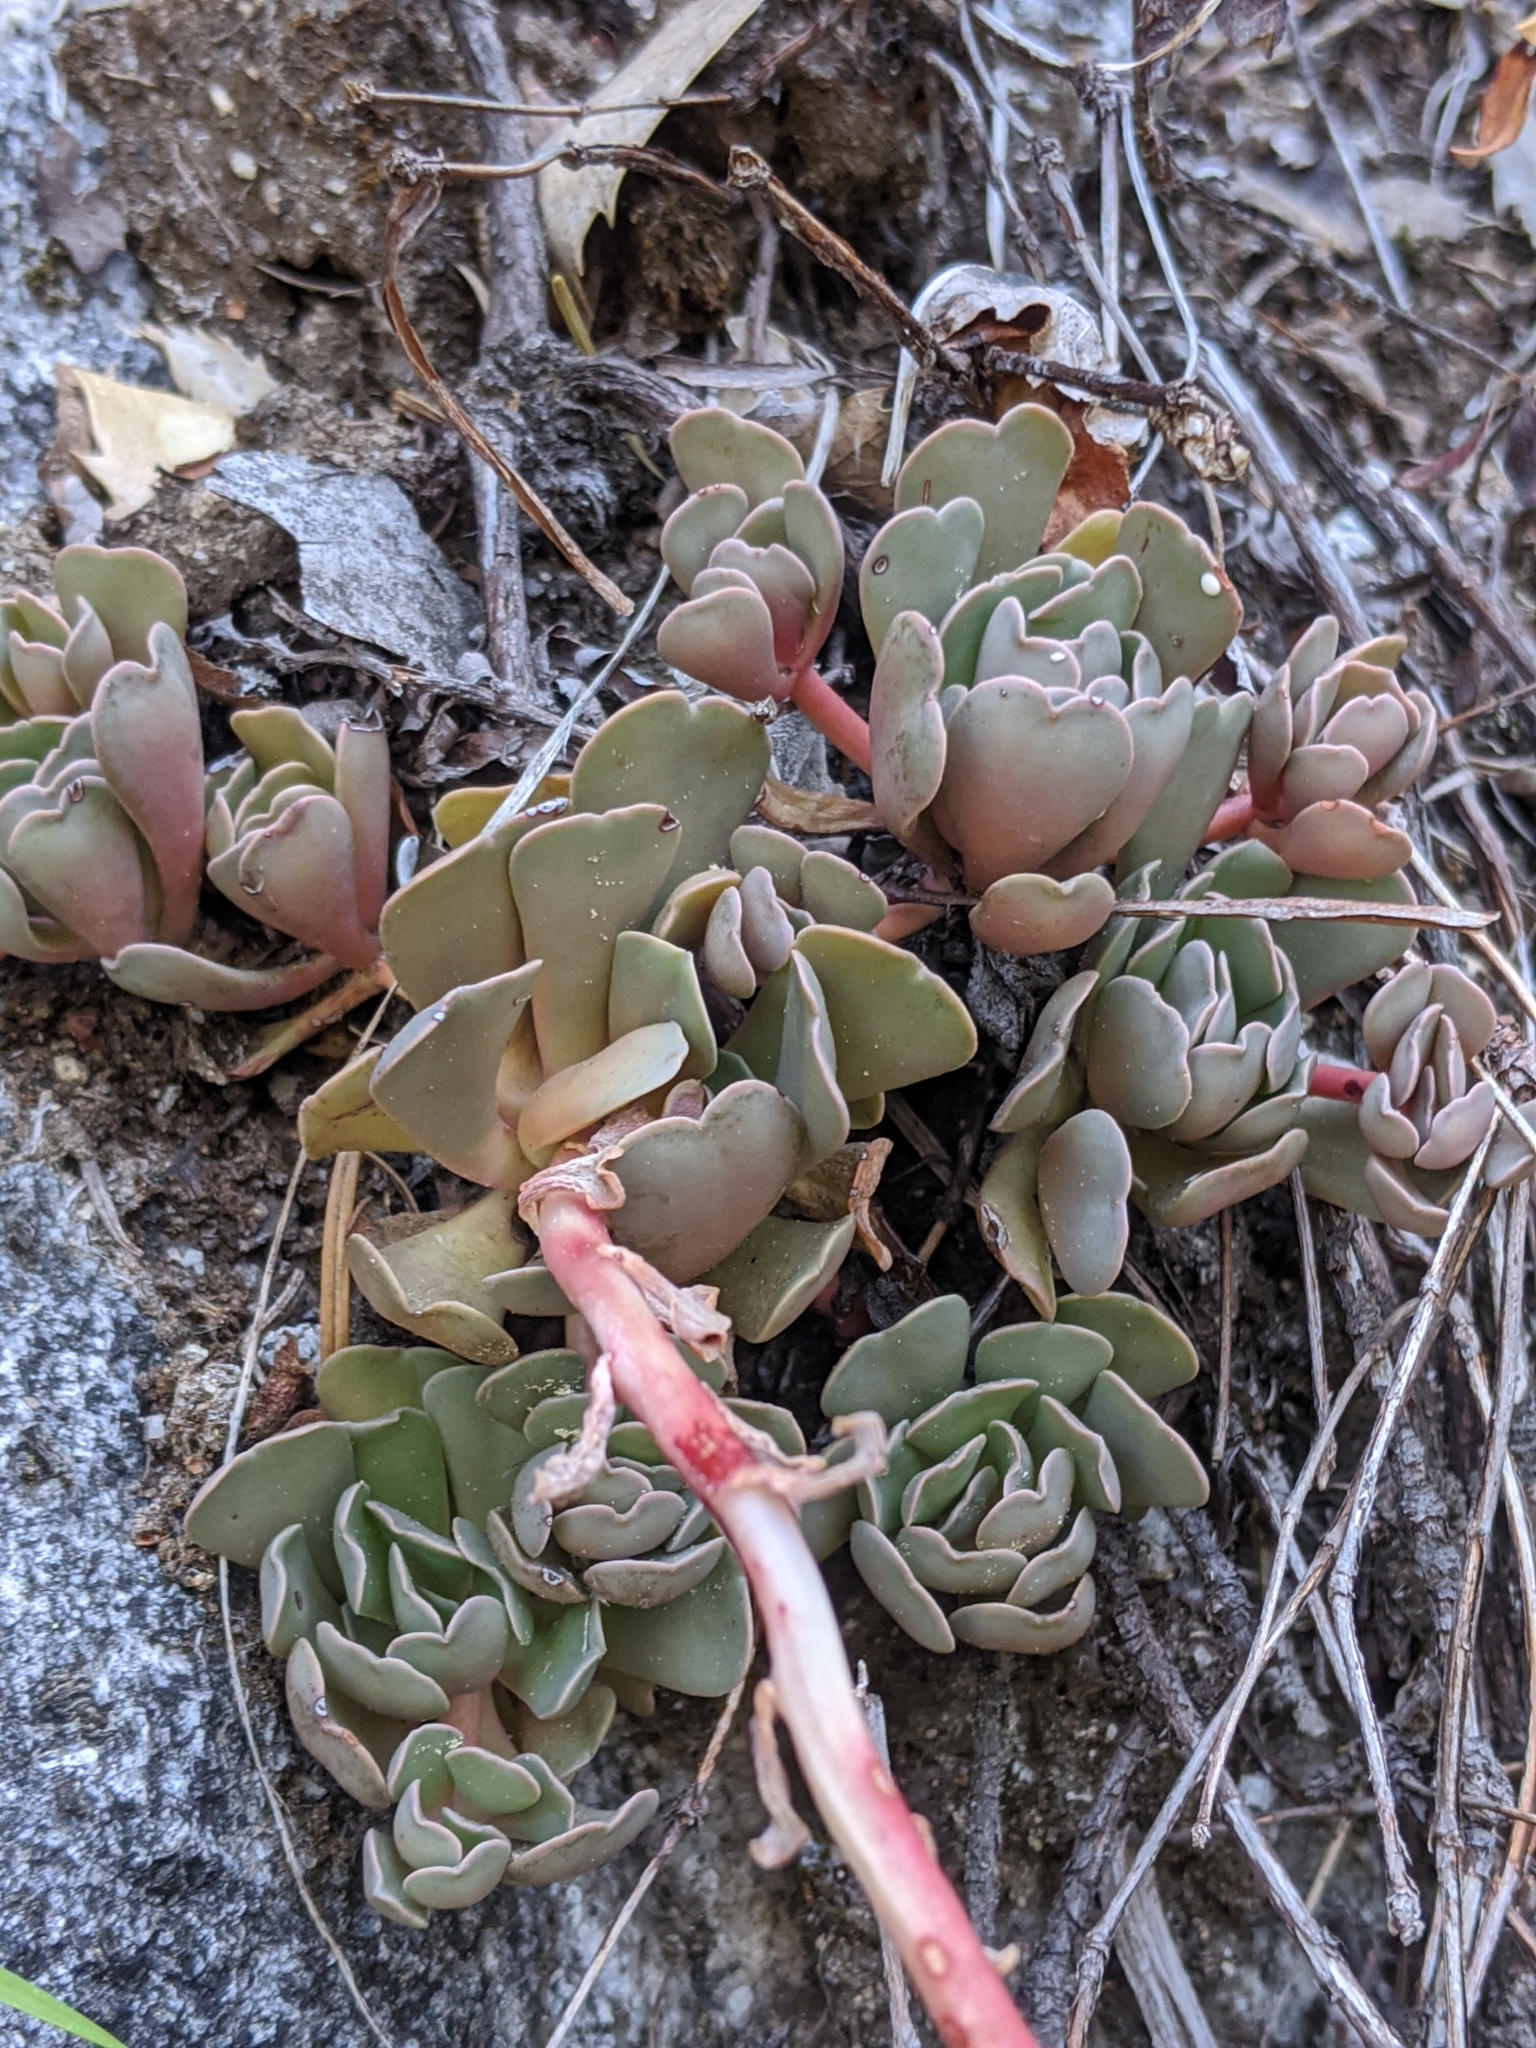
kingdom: Plantae
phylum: Tracheophyta
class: Magnoliopsida
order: Saxifragales
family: Crassulaceae
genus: Sedum
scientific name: Sedum oregonense
